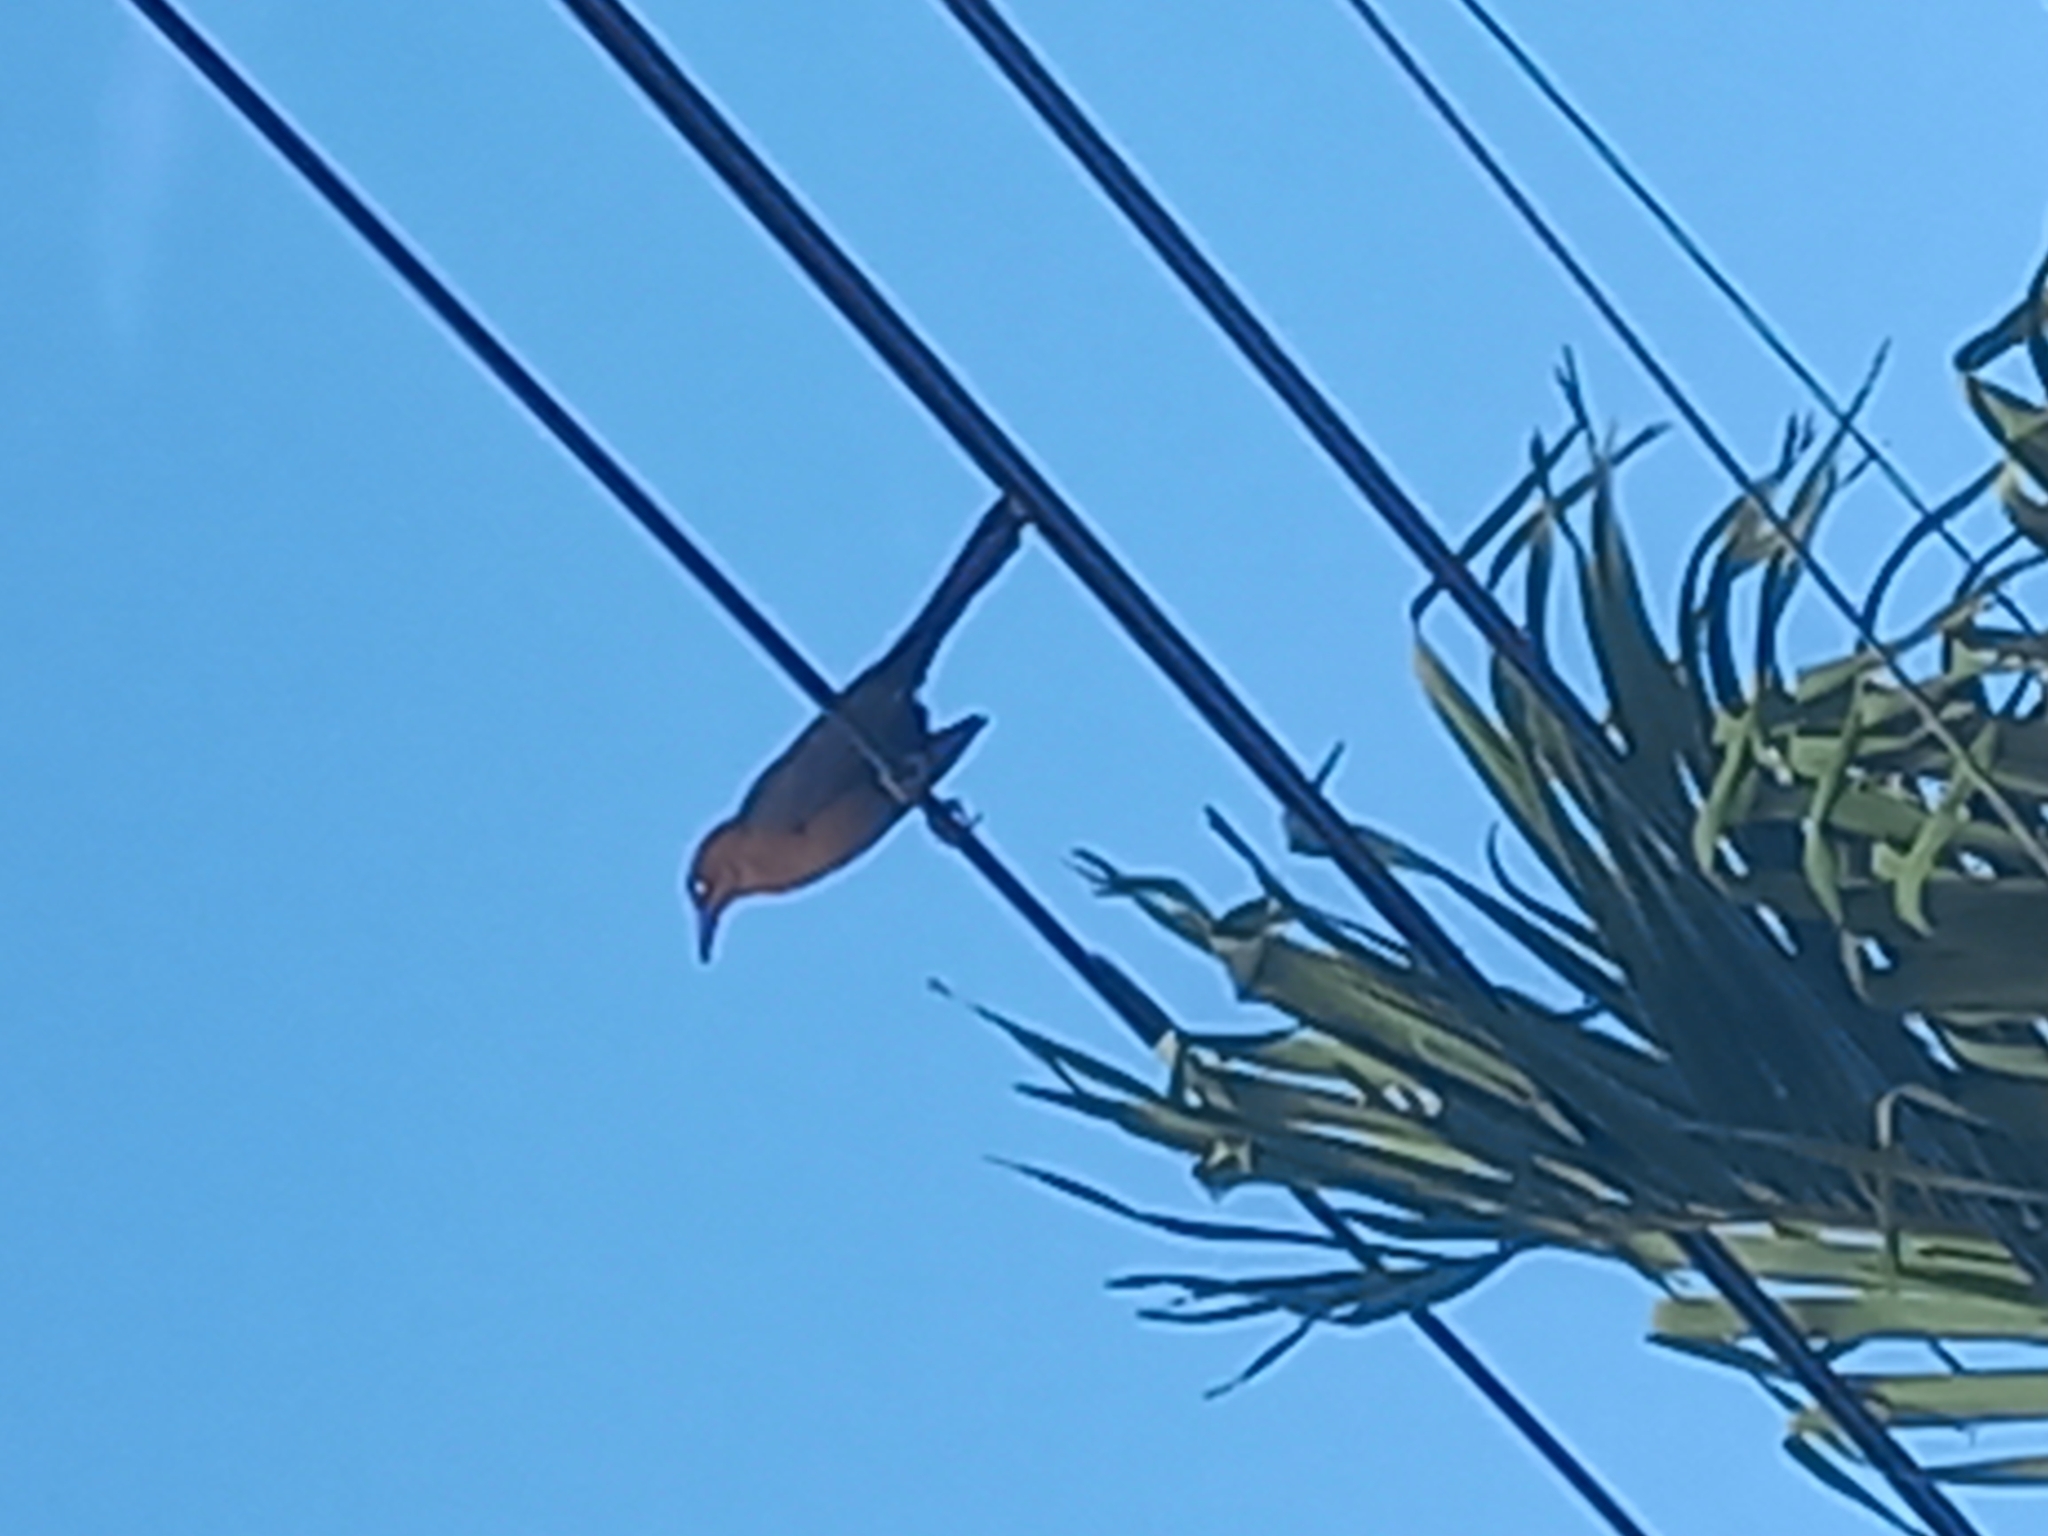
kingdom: Animalia
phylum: Chordata
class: Aves
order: Passeriformes
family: Icteridae
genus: Quiscalus
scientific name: Quiscalus mexicanus
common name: Great-tailed grackle
